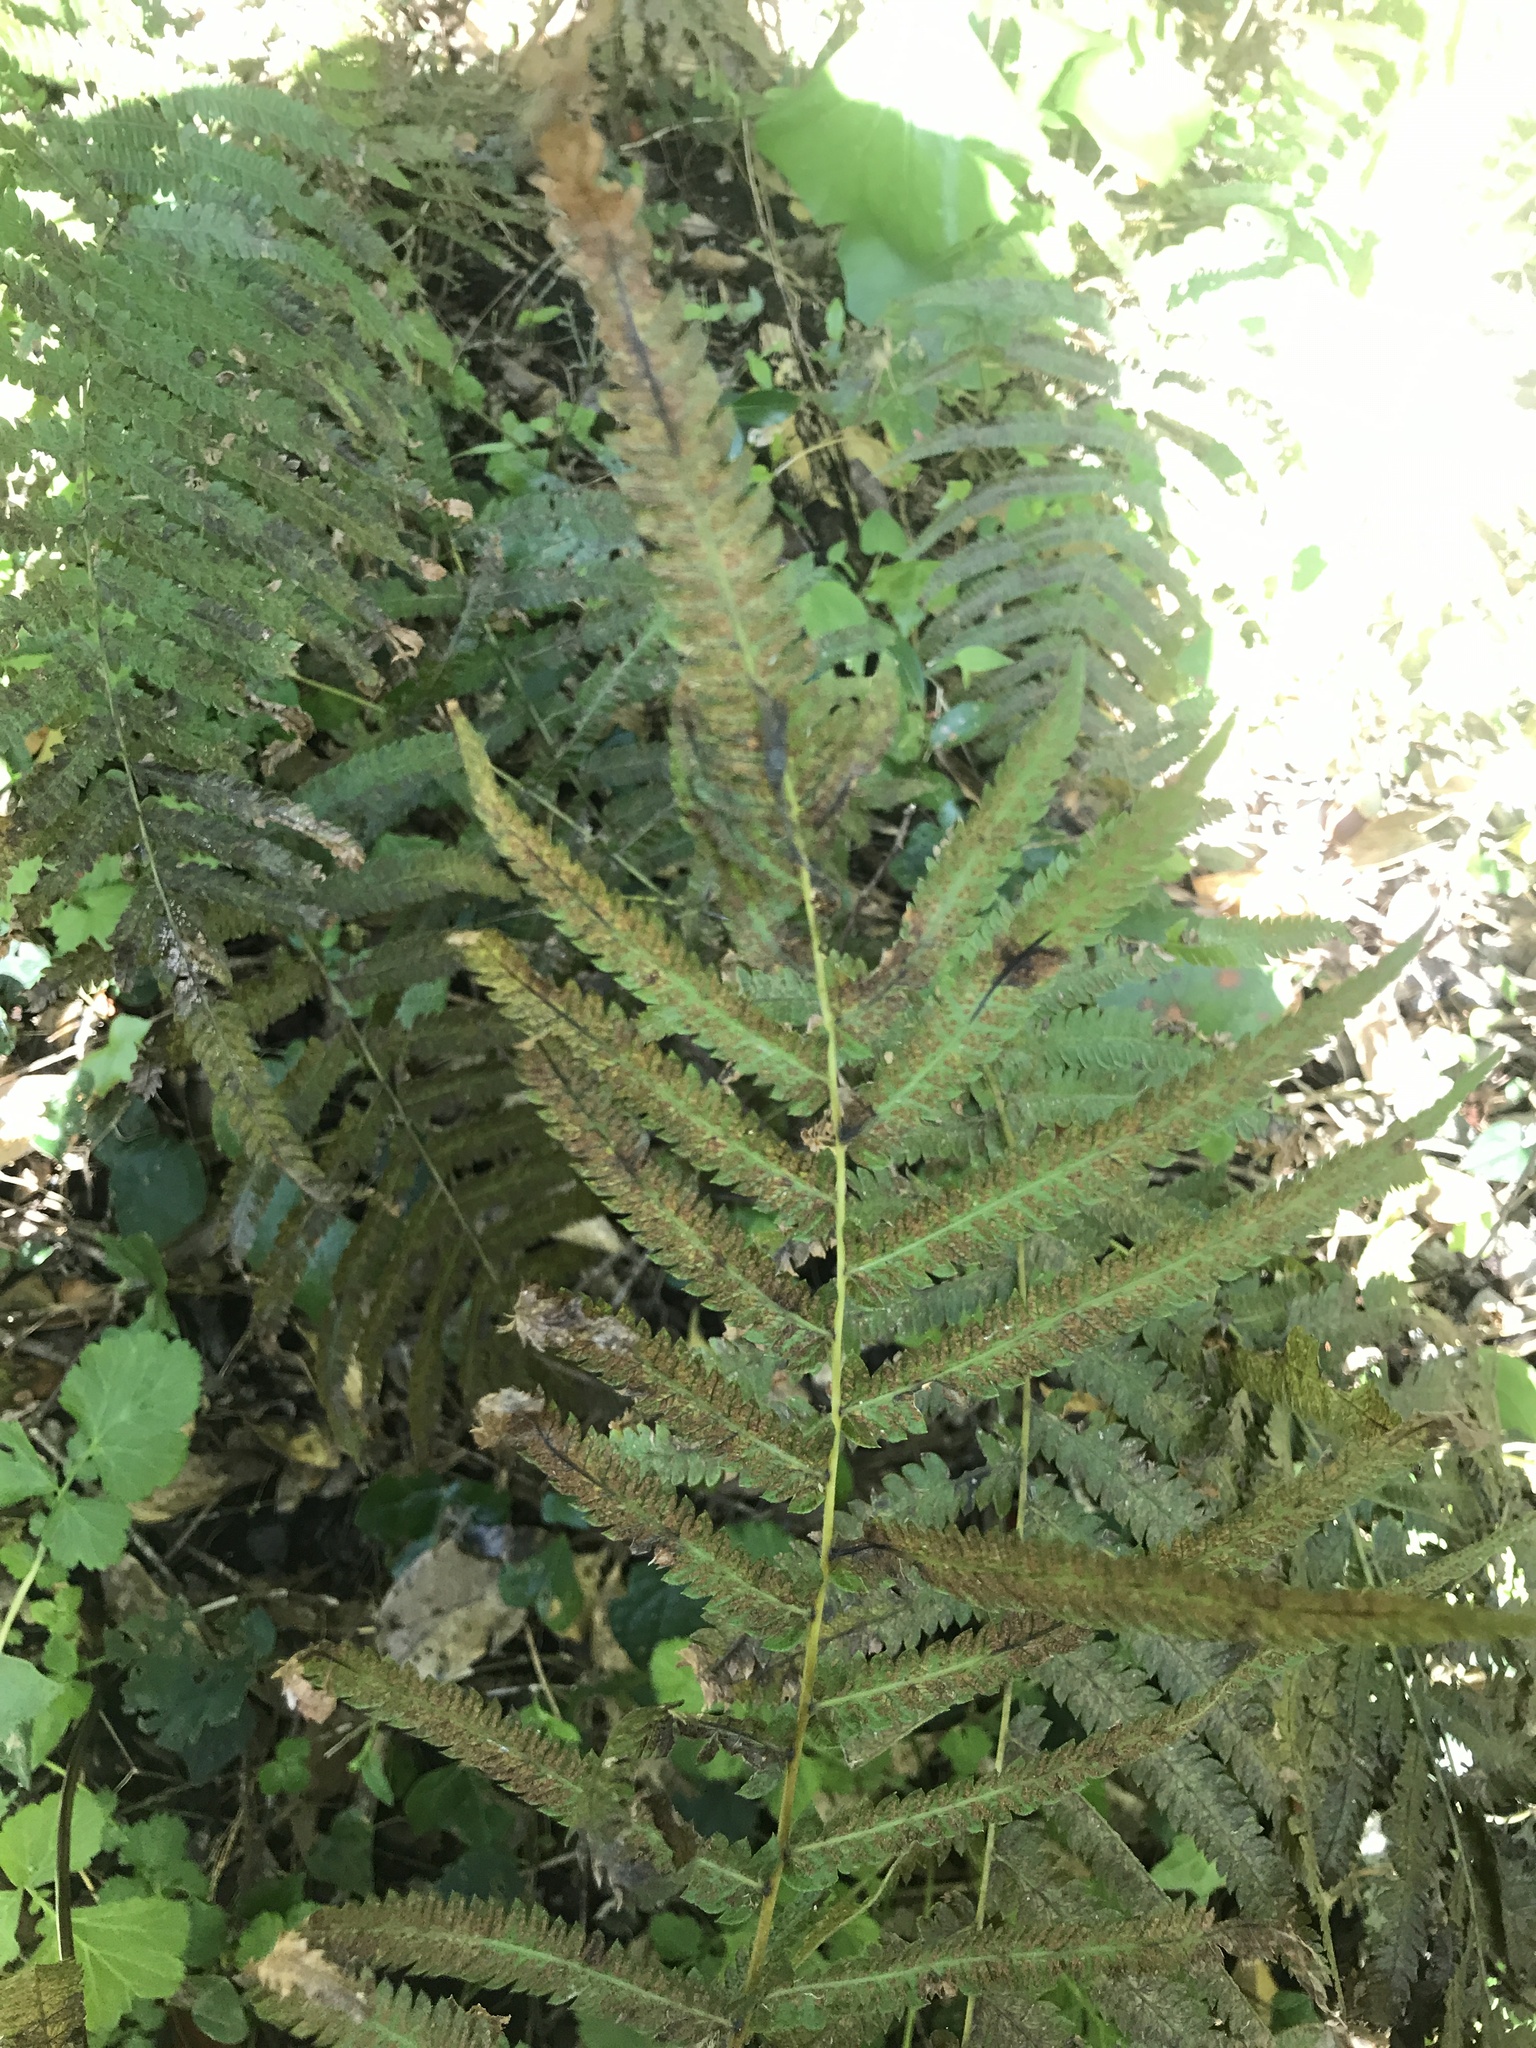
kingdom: Plantae
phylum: Tracheophyta
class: Polypodiopsida
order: Polypodiales
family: Thelypteridaceae
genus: Christella
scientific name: Christella acuminata
